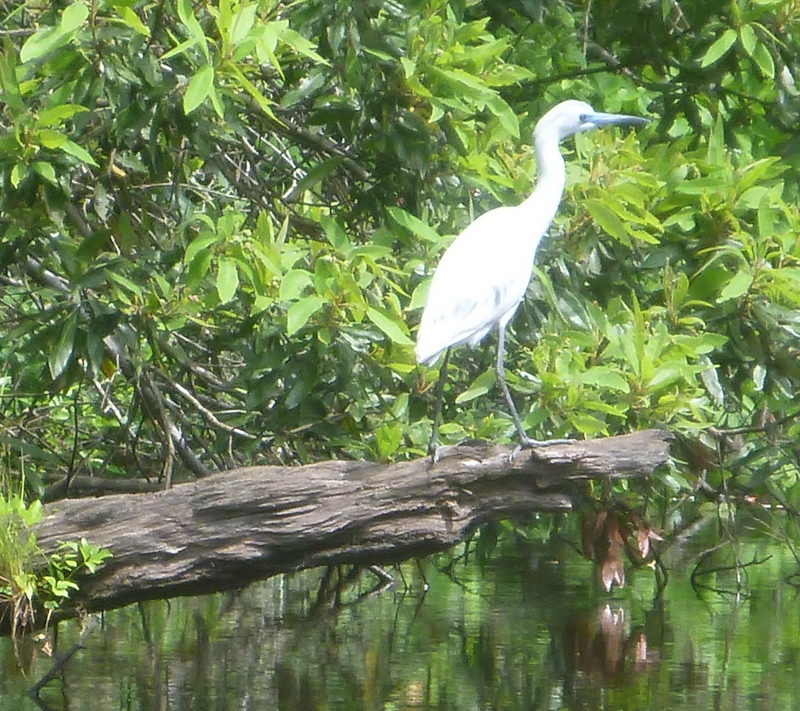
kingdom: Animalia
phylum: Chordata
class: Aves
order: Pelecaniformes
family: Ardeidae
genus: Egretta
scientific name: Egretta caerulea
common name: Little blue heron
